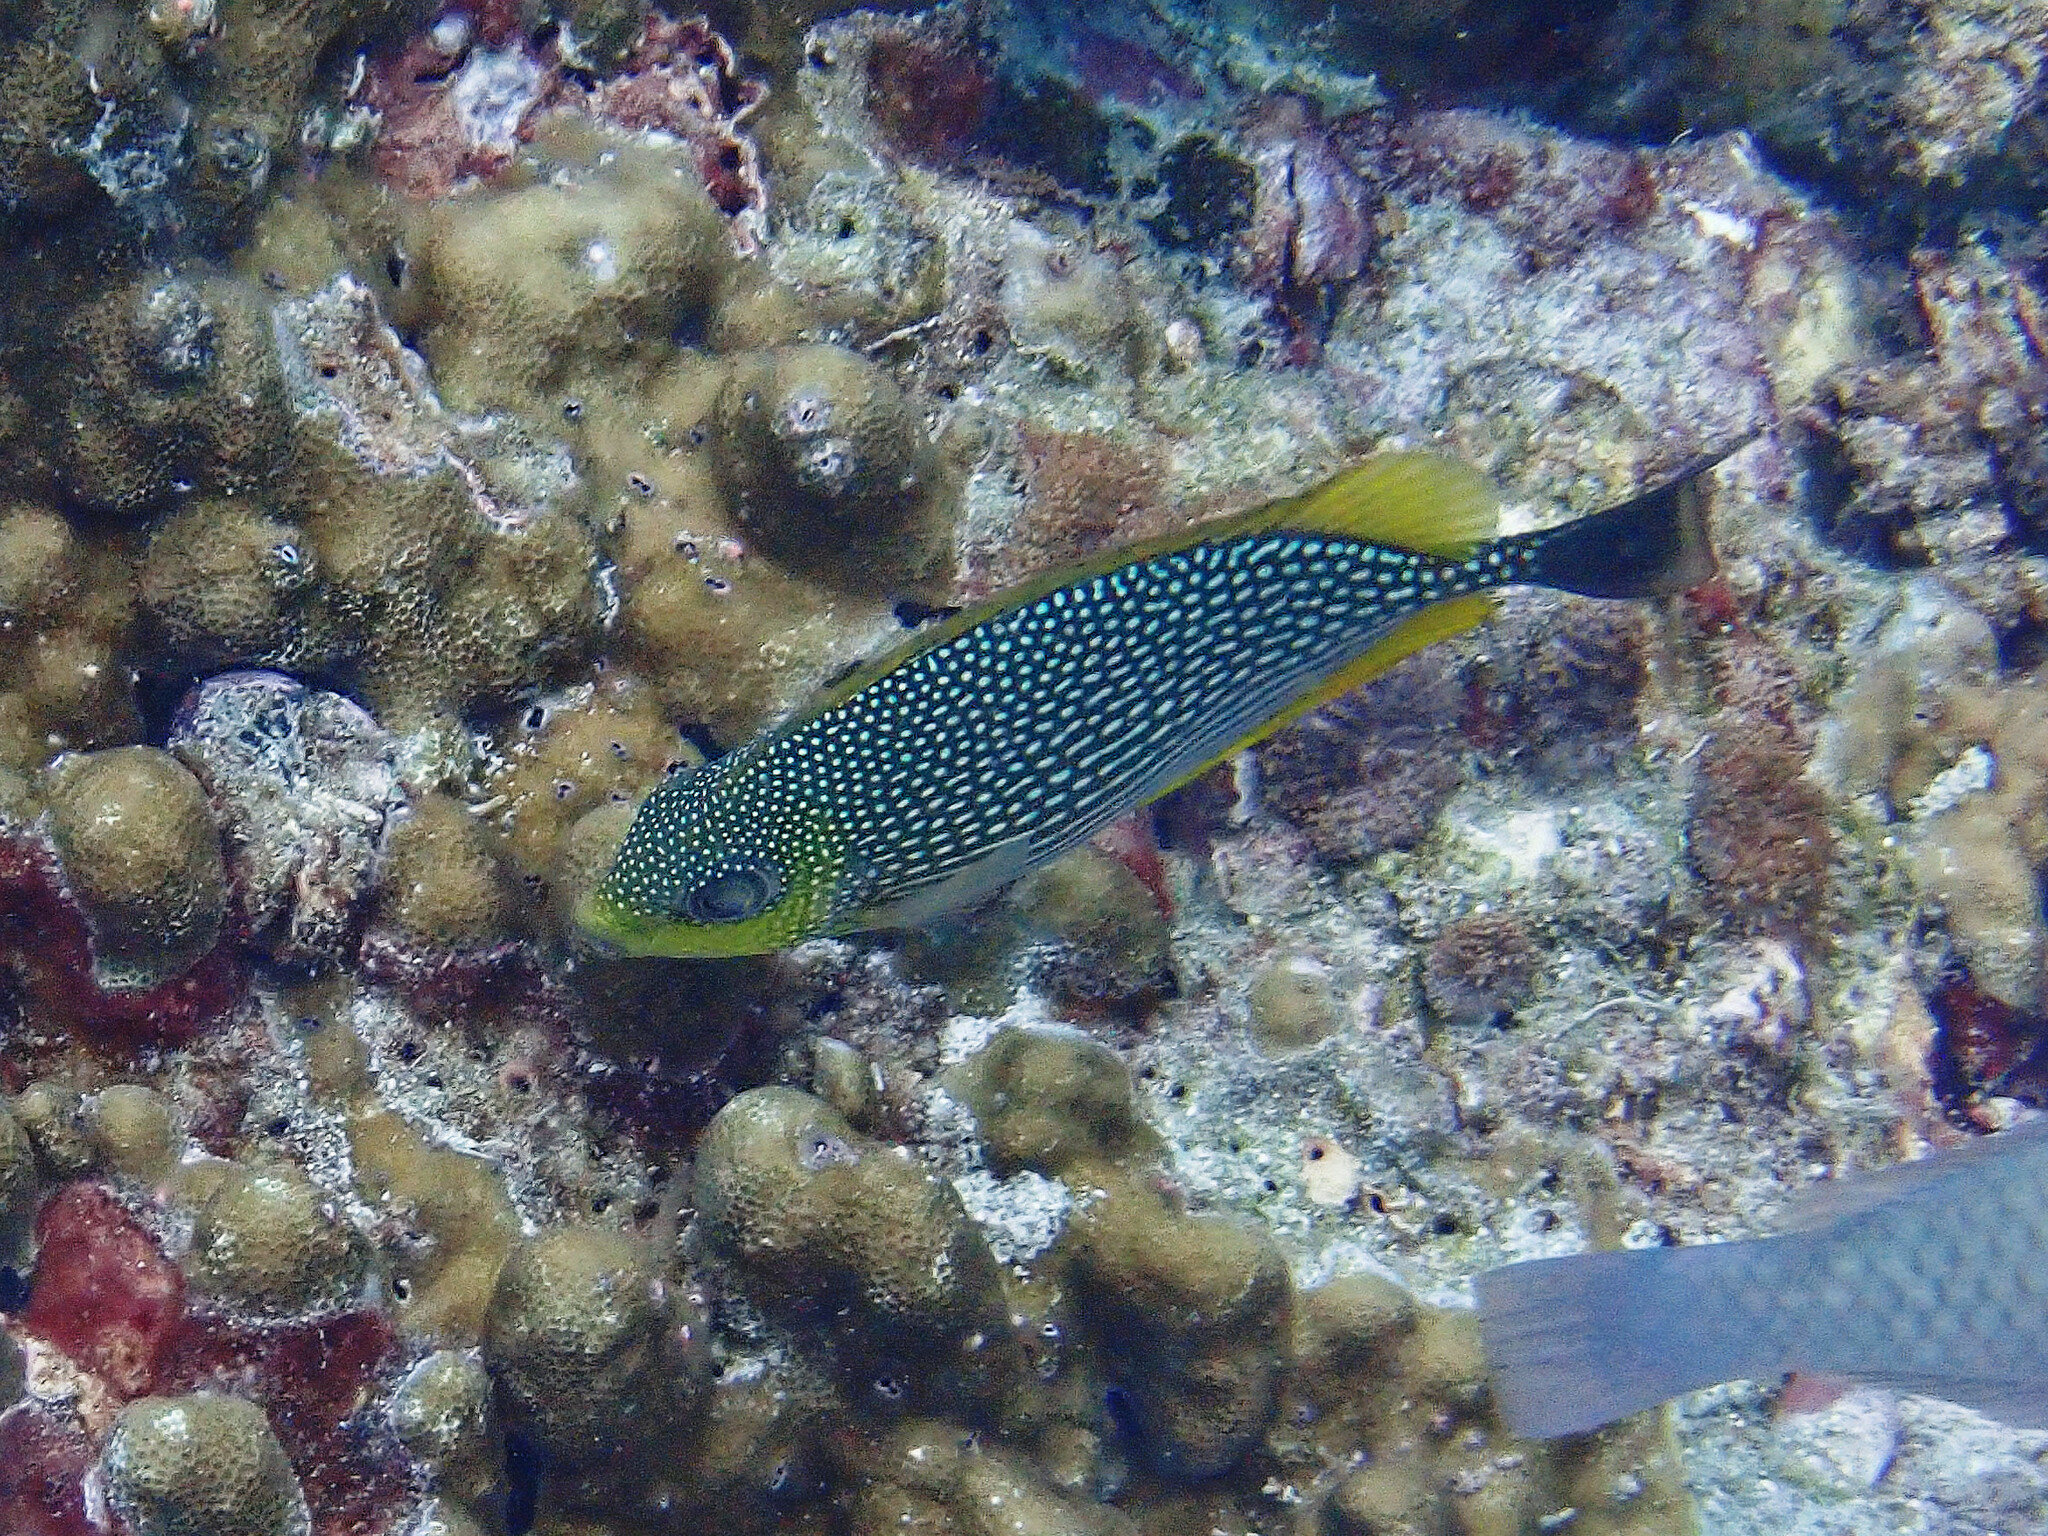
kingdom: Animalia
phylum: Chordata
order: Perciformes
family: Siganidae
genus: Siganus
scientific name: Siganus javus
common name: Java rabbitfish
